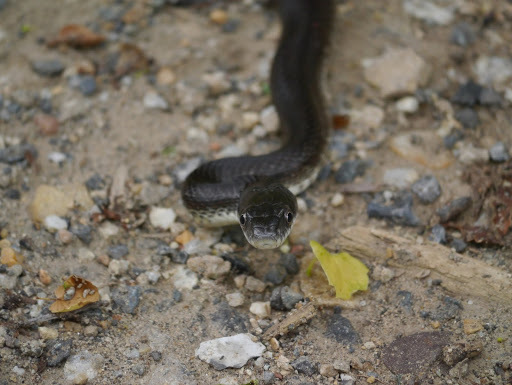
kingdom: Animalia
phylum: Chordata
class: Squamata
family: Colubridae
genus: Pantherophis
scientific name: Pantherophis alleghaniensis
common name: Eastern rat snake
